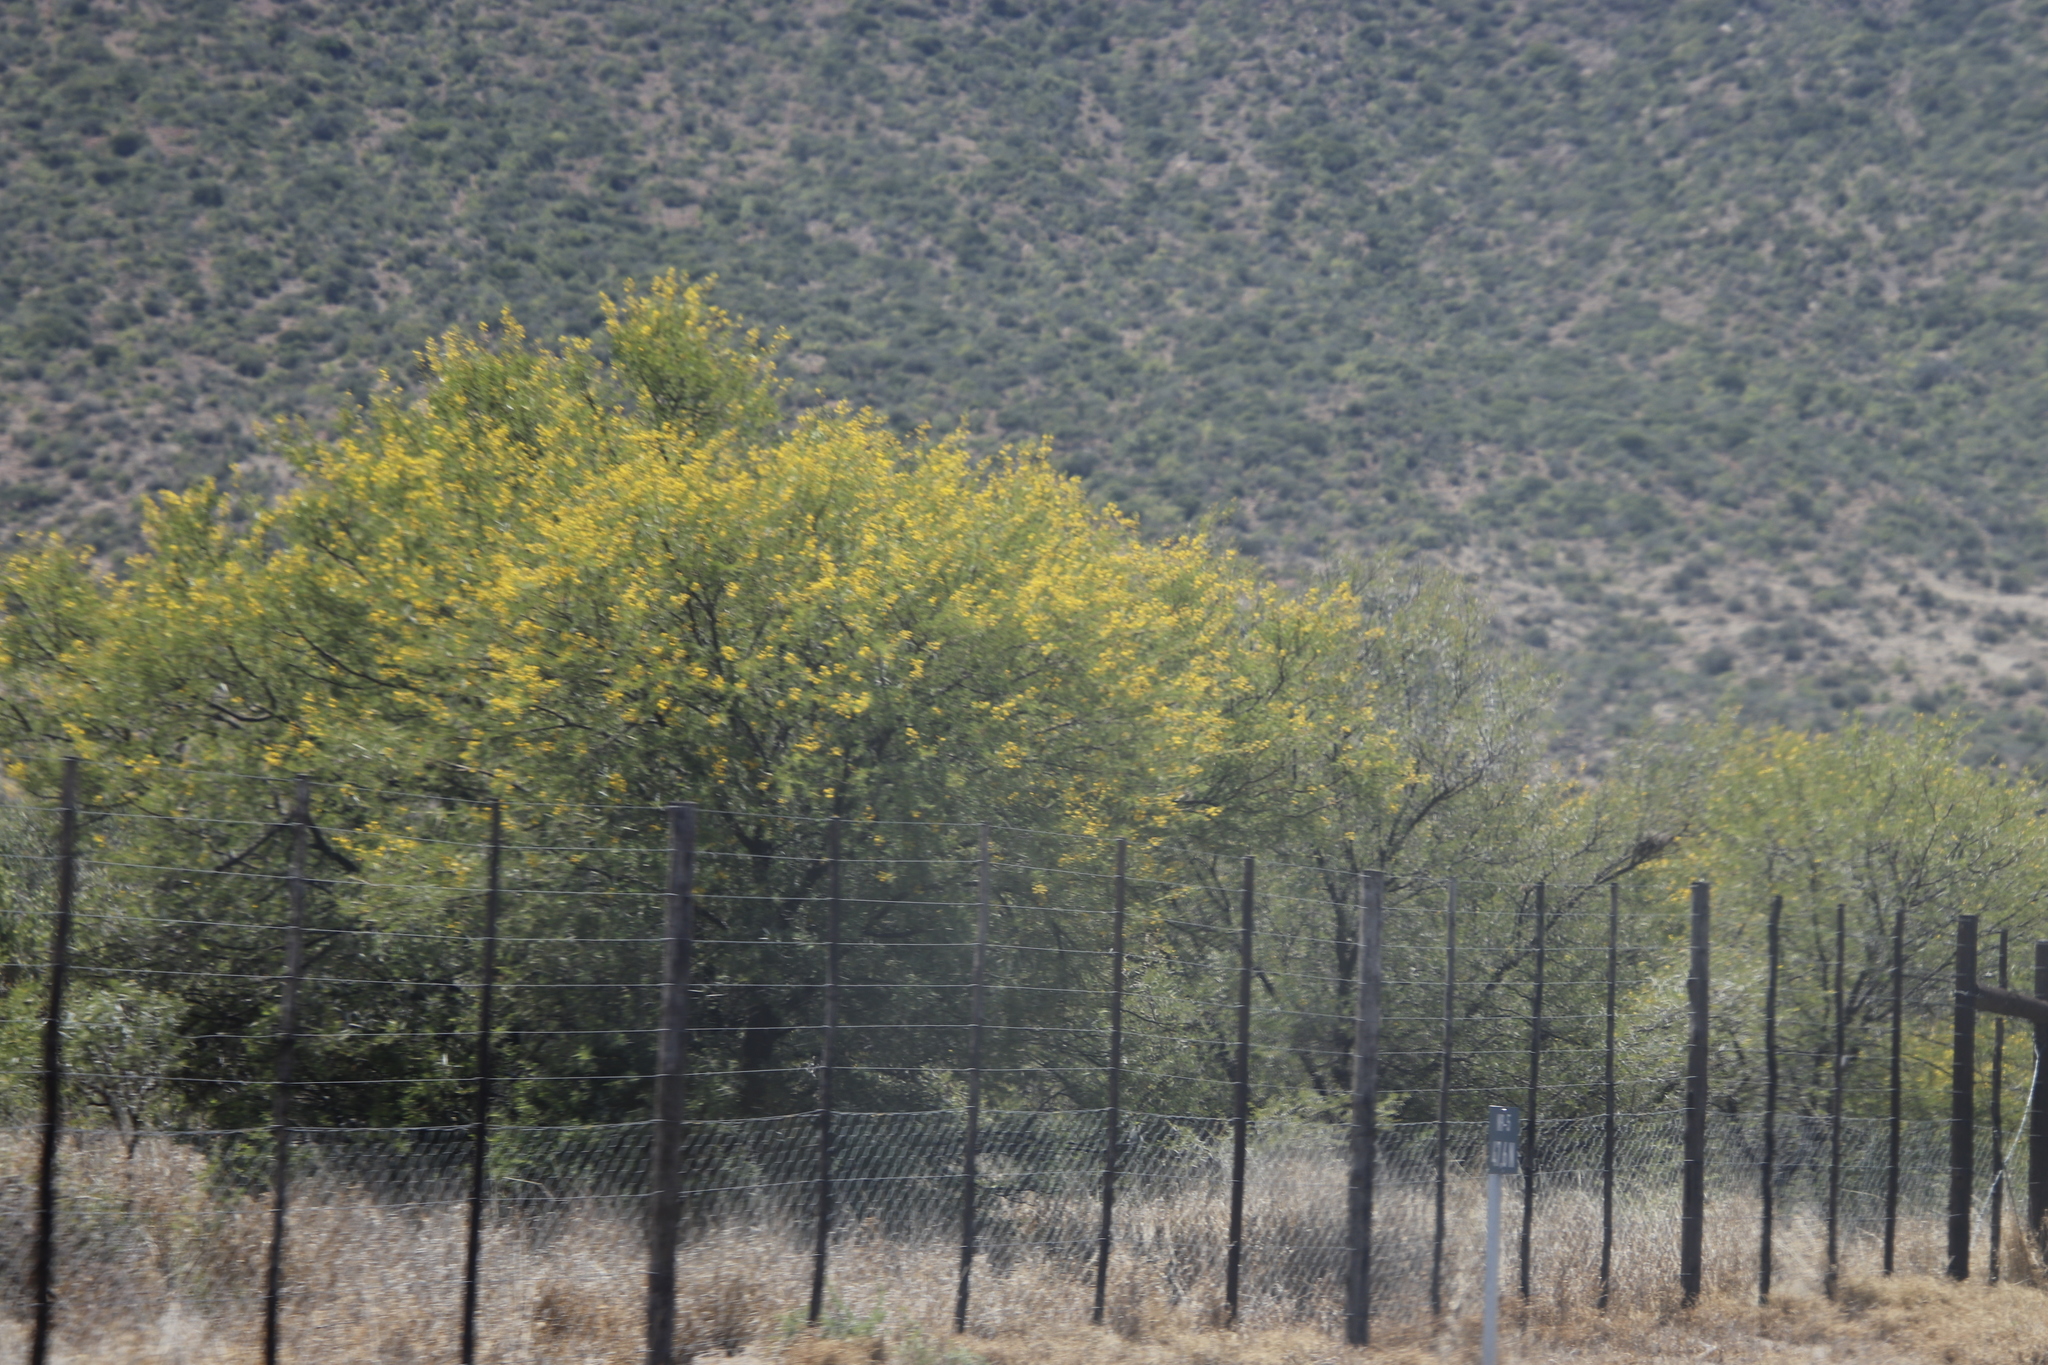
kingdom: Plantae
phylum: Tracheophyta
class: Magnoliopsida
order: Fabales
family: Fabaceae
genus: Vachellia
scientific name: Vachellia karroo
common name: Sweet thorn
